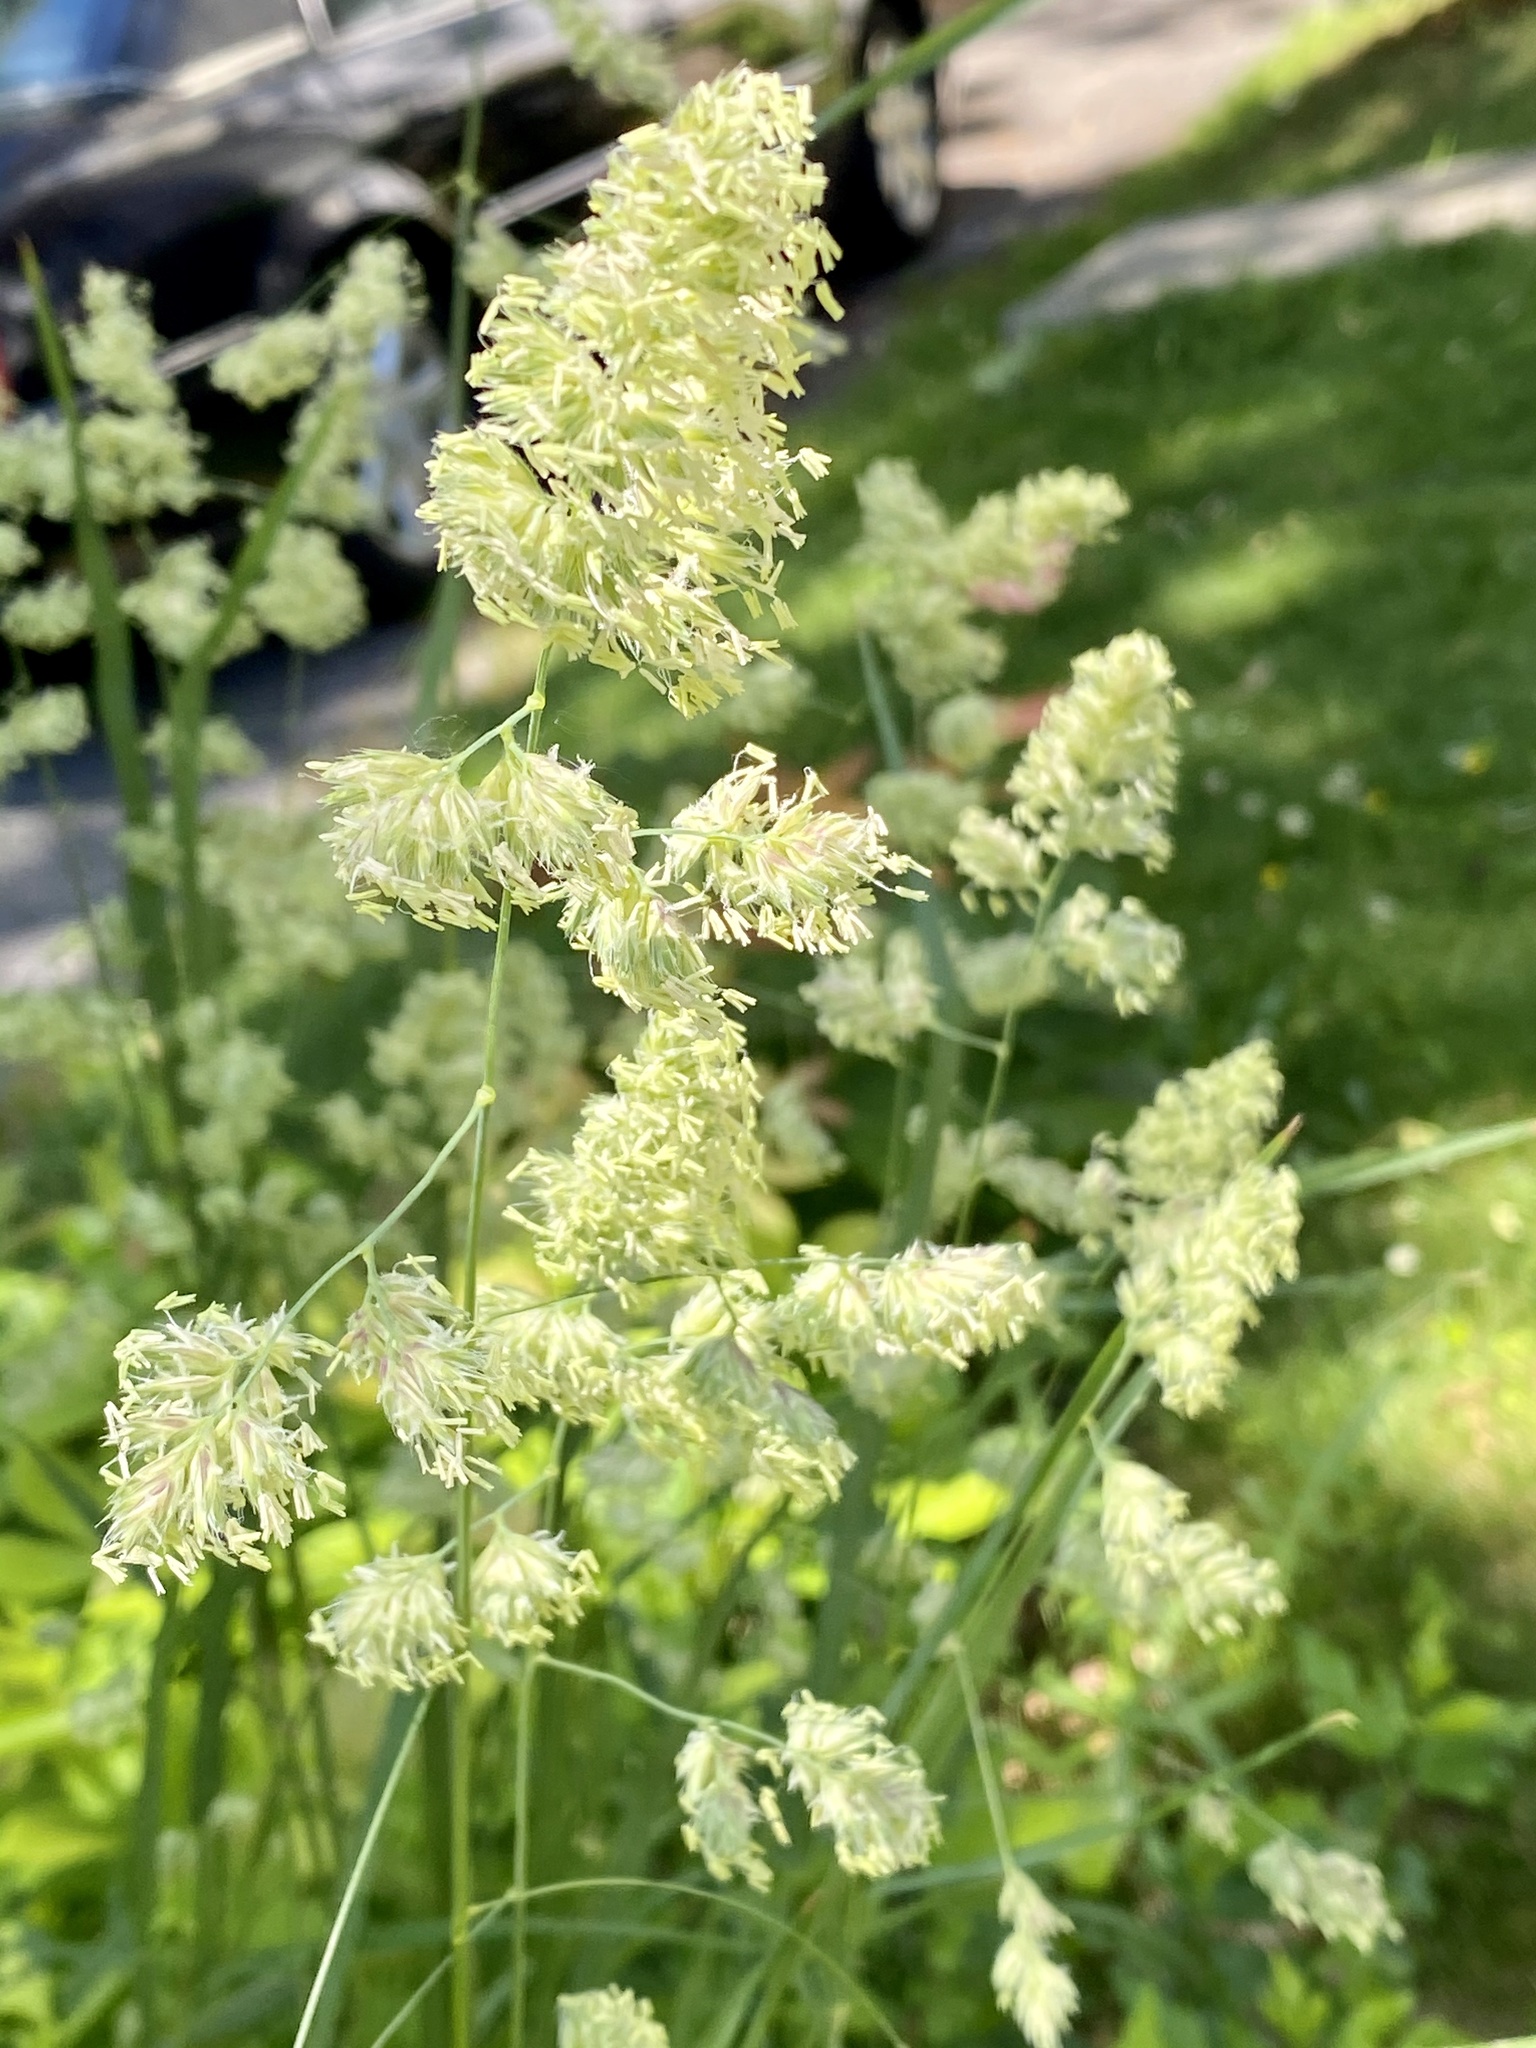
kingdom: Plantae
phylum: Tracheophyta
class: Liliopsida
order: Poales
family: Poaceae
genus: Dactylis
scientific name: Dactylis glomerata
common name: Orchardgrass
